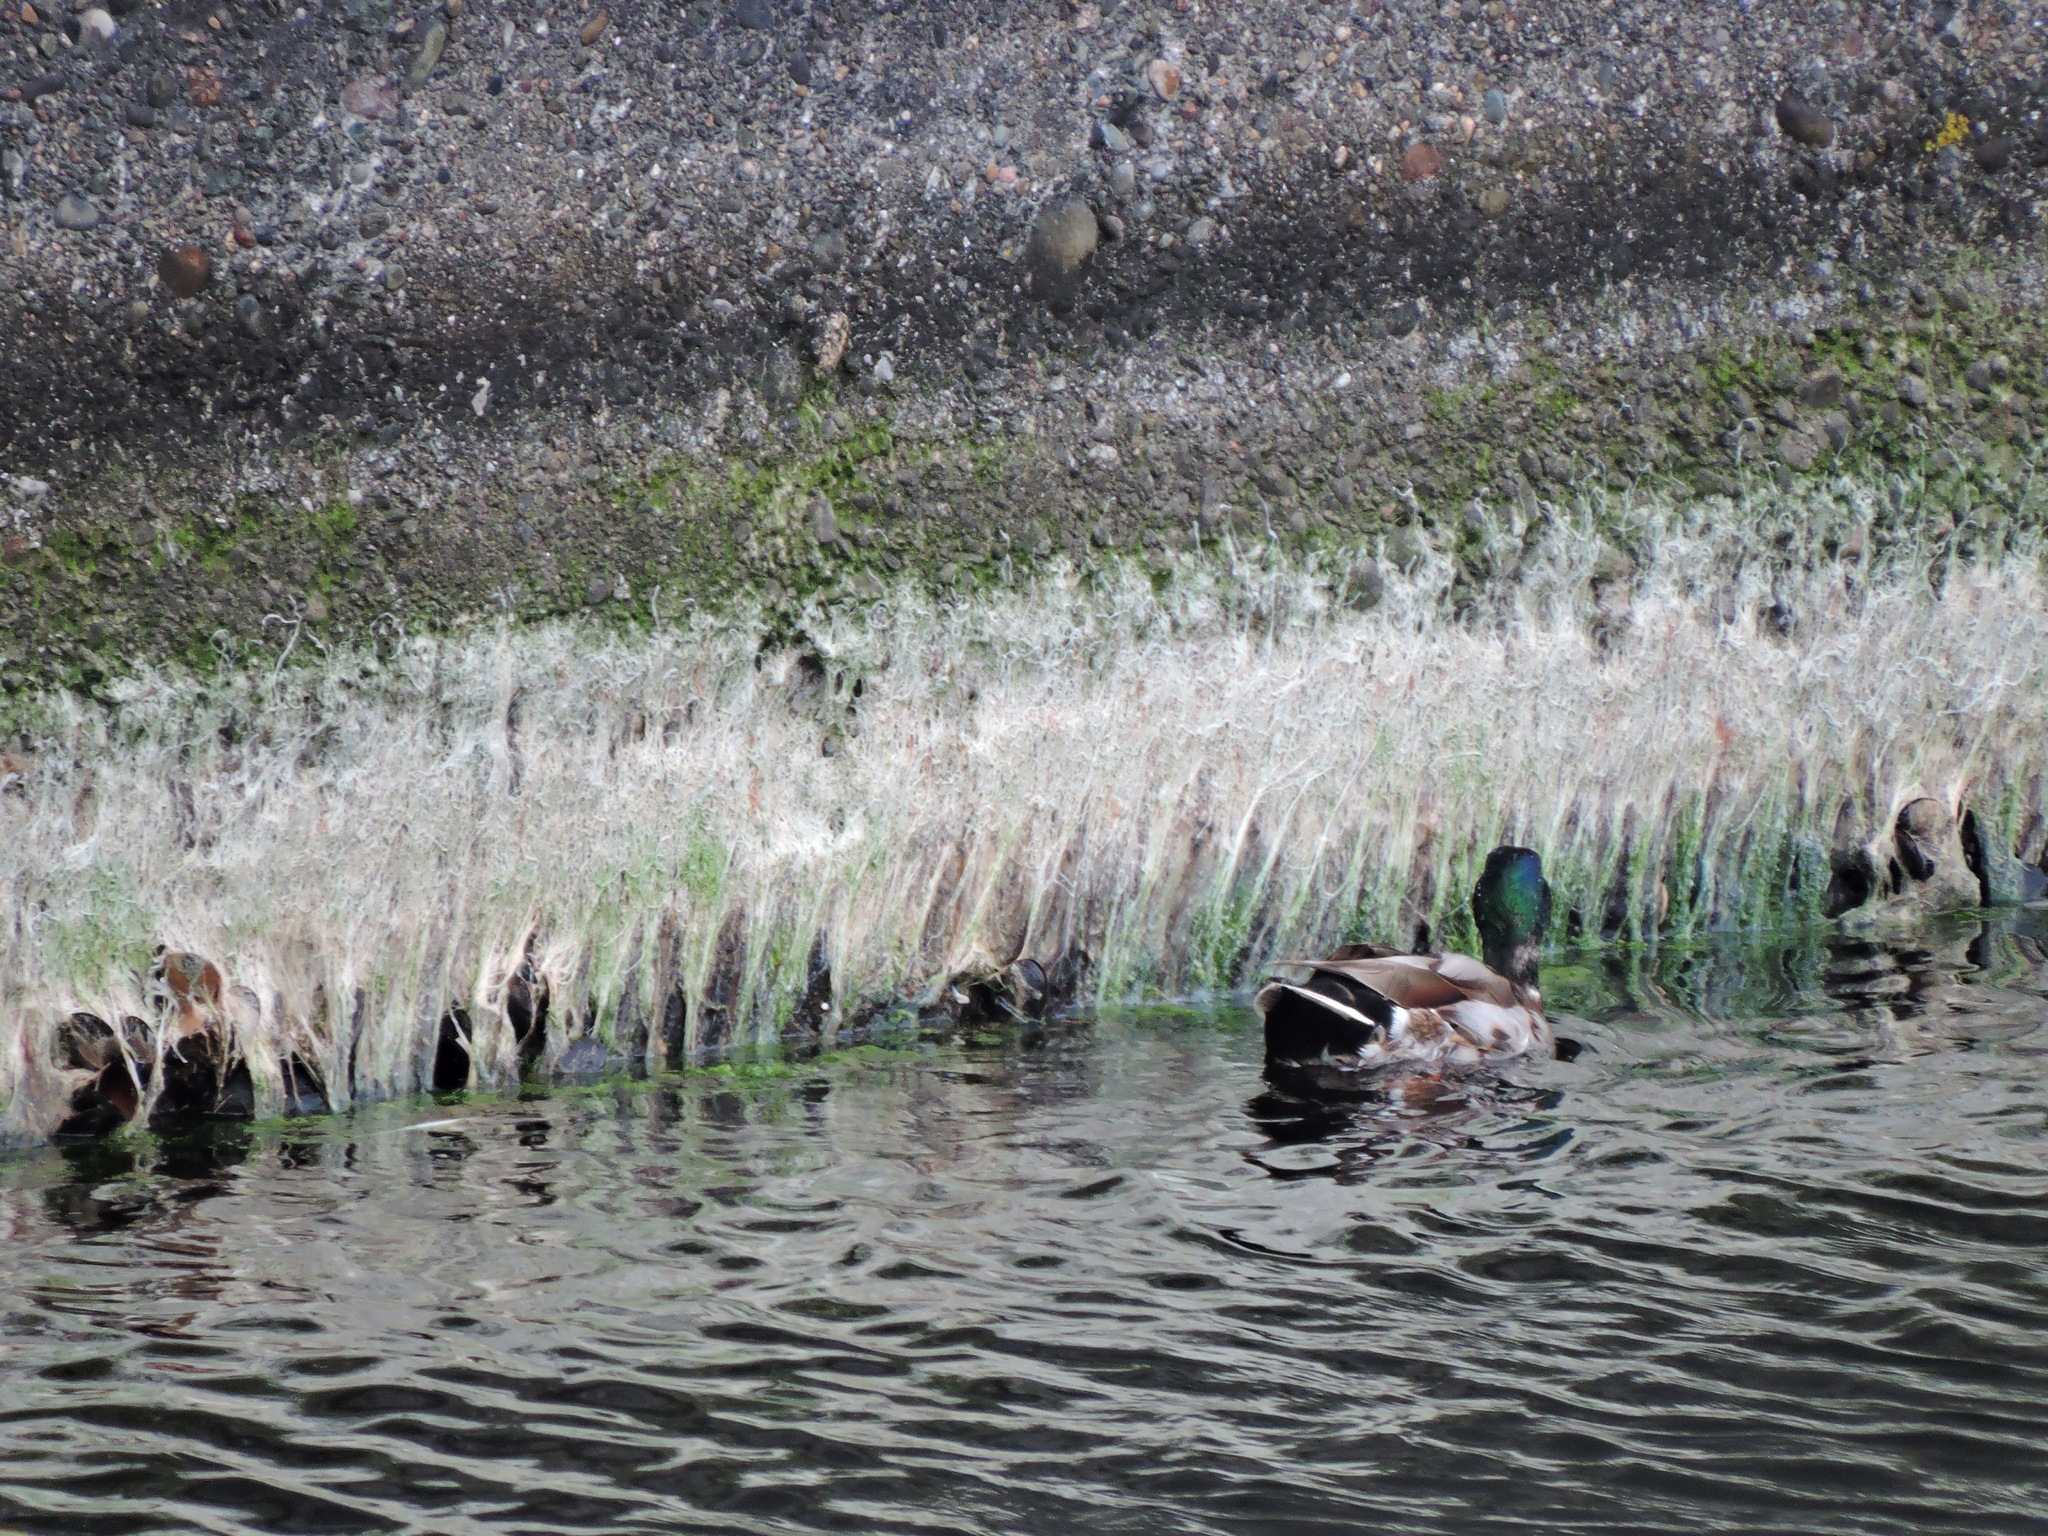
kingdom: Animalia
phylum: Chordata
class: Aves
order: Anseriformes
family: Anatidae
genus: Anas
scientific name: Anas platyrhynchos
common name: Mallard
